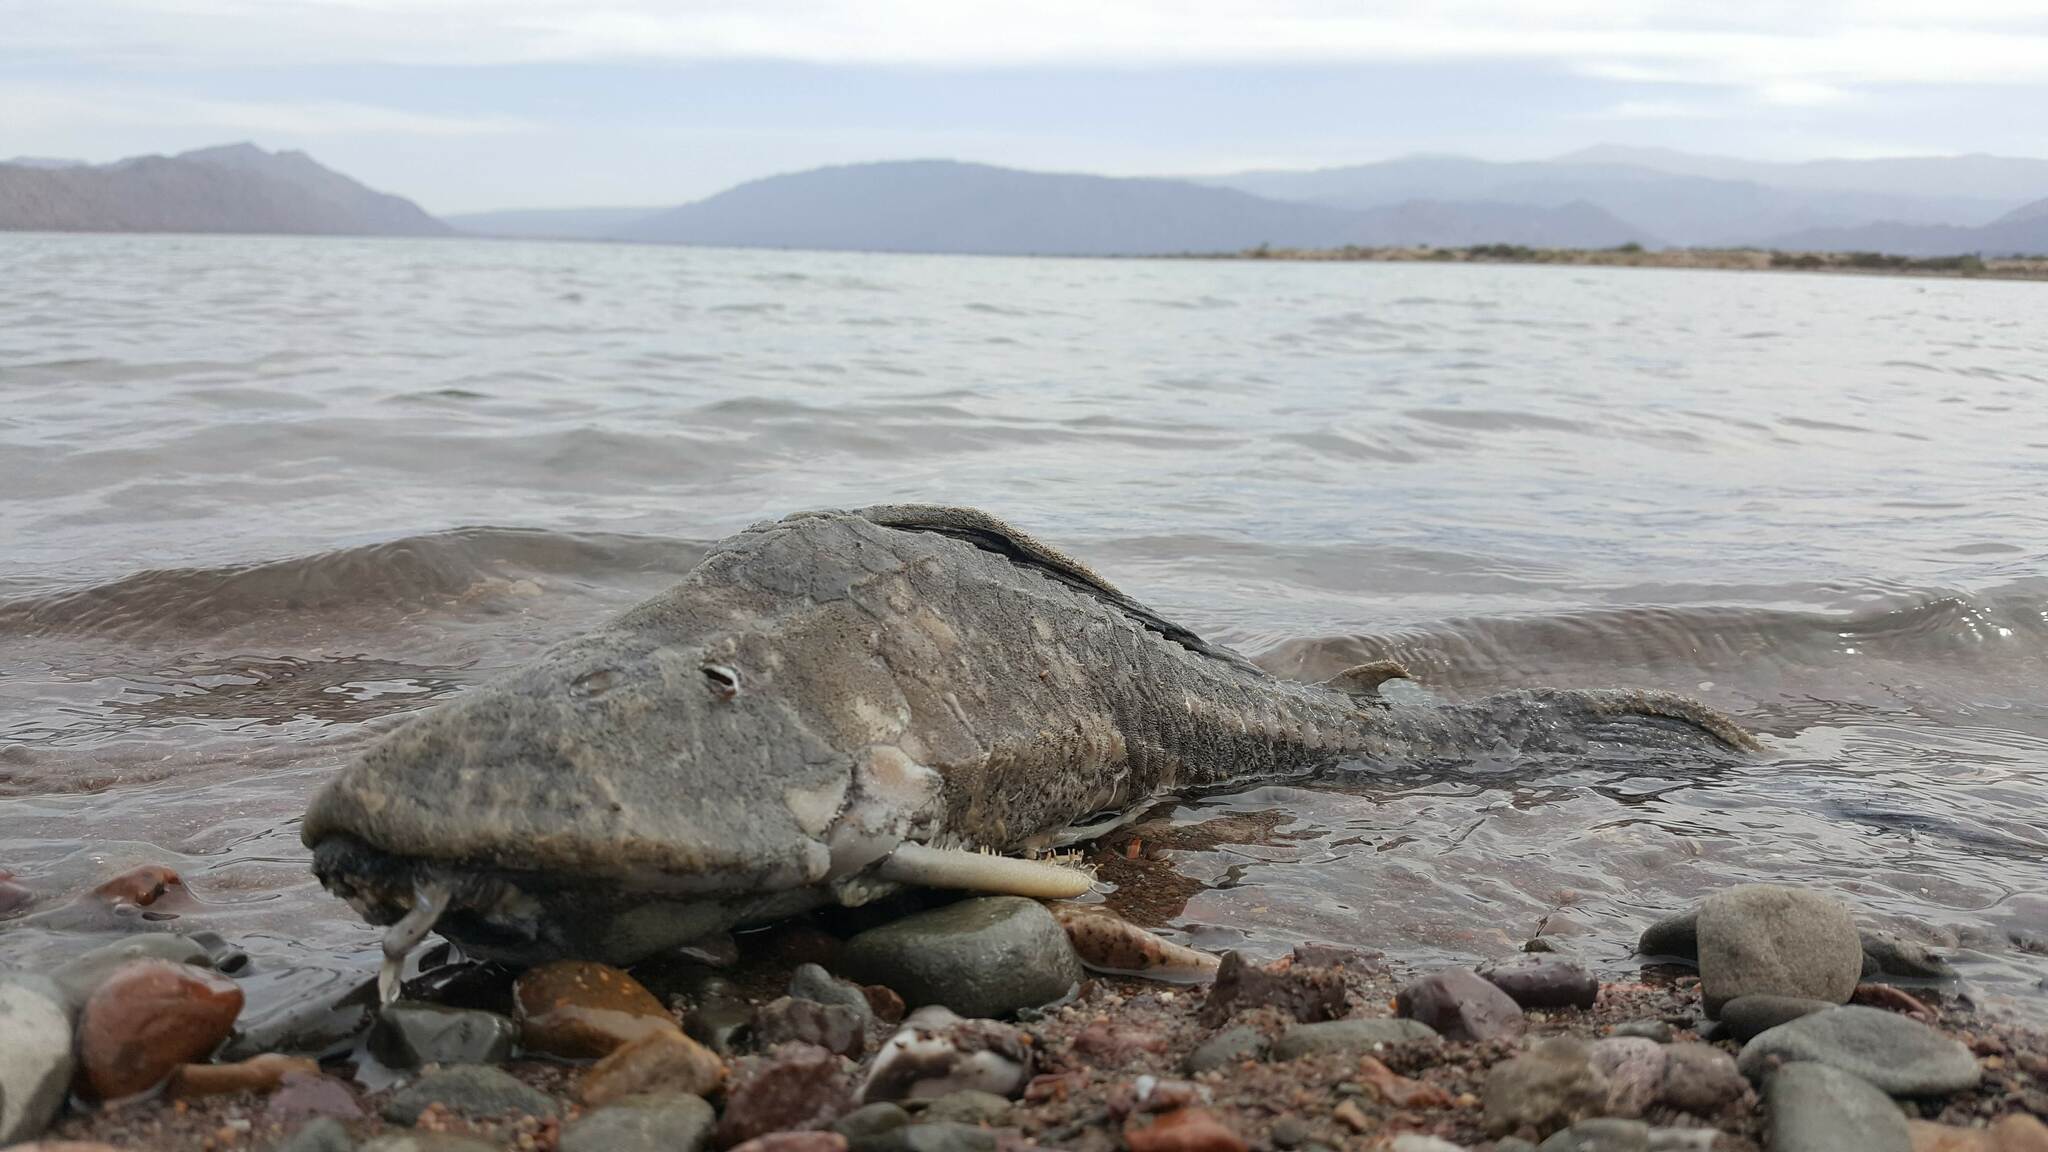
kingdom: Animalia
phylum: Chordata
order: Siluriformes
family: Loricariidae
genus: Hypostomus
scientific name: Hypostomus commersoni
